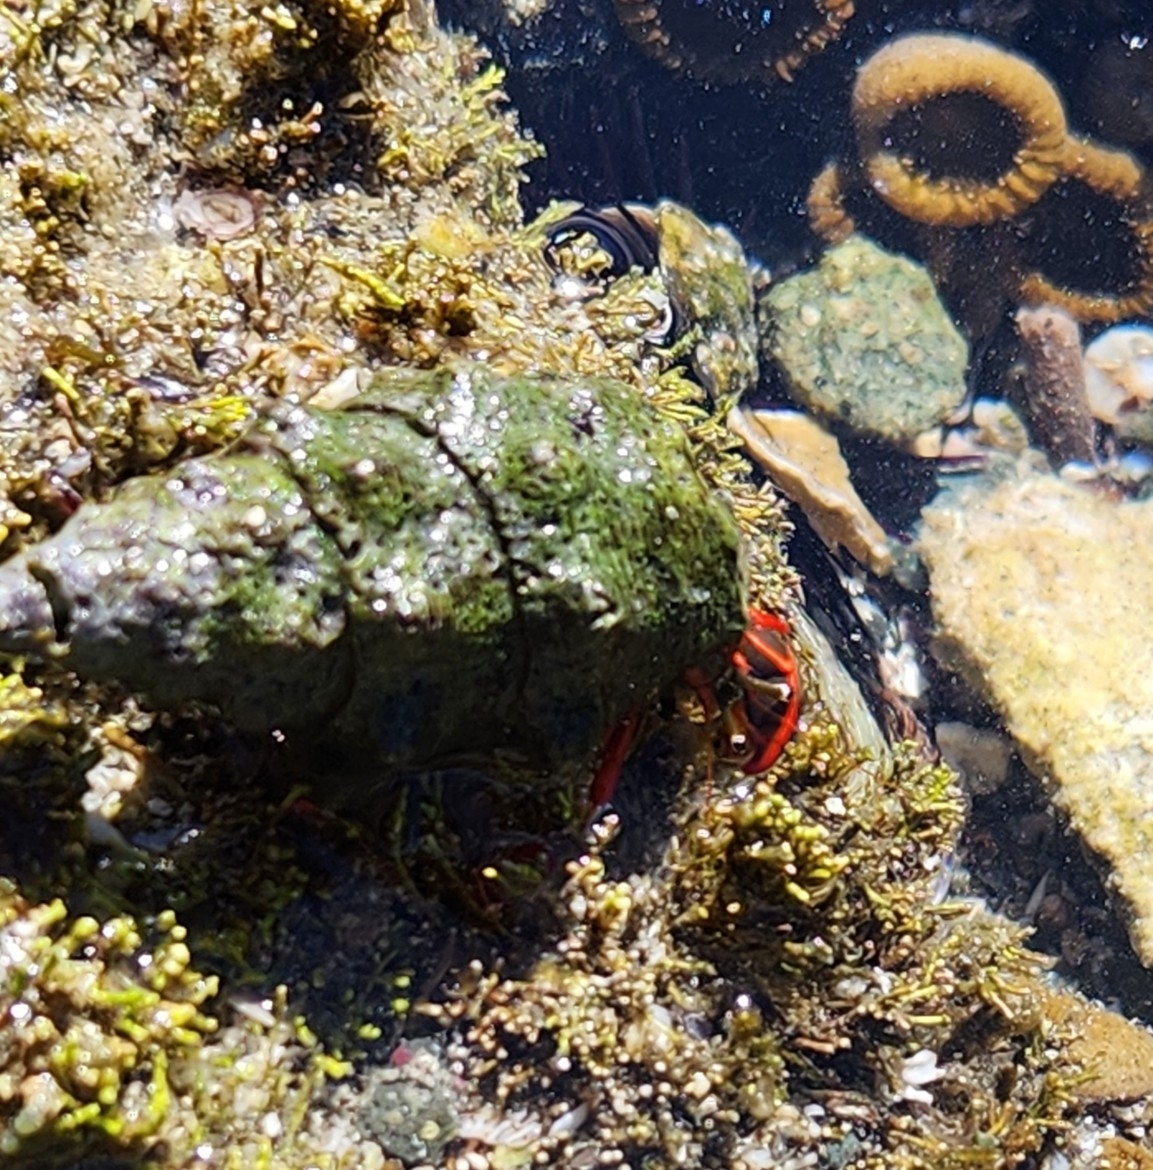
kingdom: Animalia
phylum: Arthropoda
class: Malacostraca
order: Decapoda
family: Diogenidae
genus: Calcinus
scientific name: Calcinus californiensis
